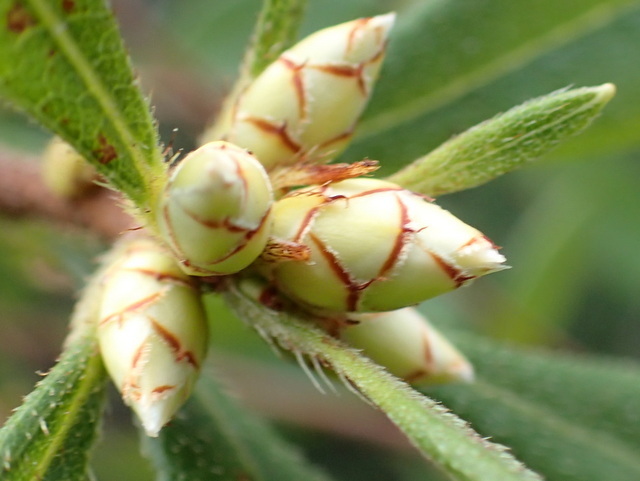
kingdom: Plantae
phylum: Tracheophyta
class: Magnoliopsida
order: Ericales
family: Ericaceae
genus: Rhododendron
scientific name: Rhododendron serrulatum
